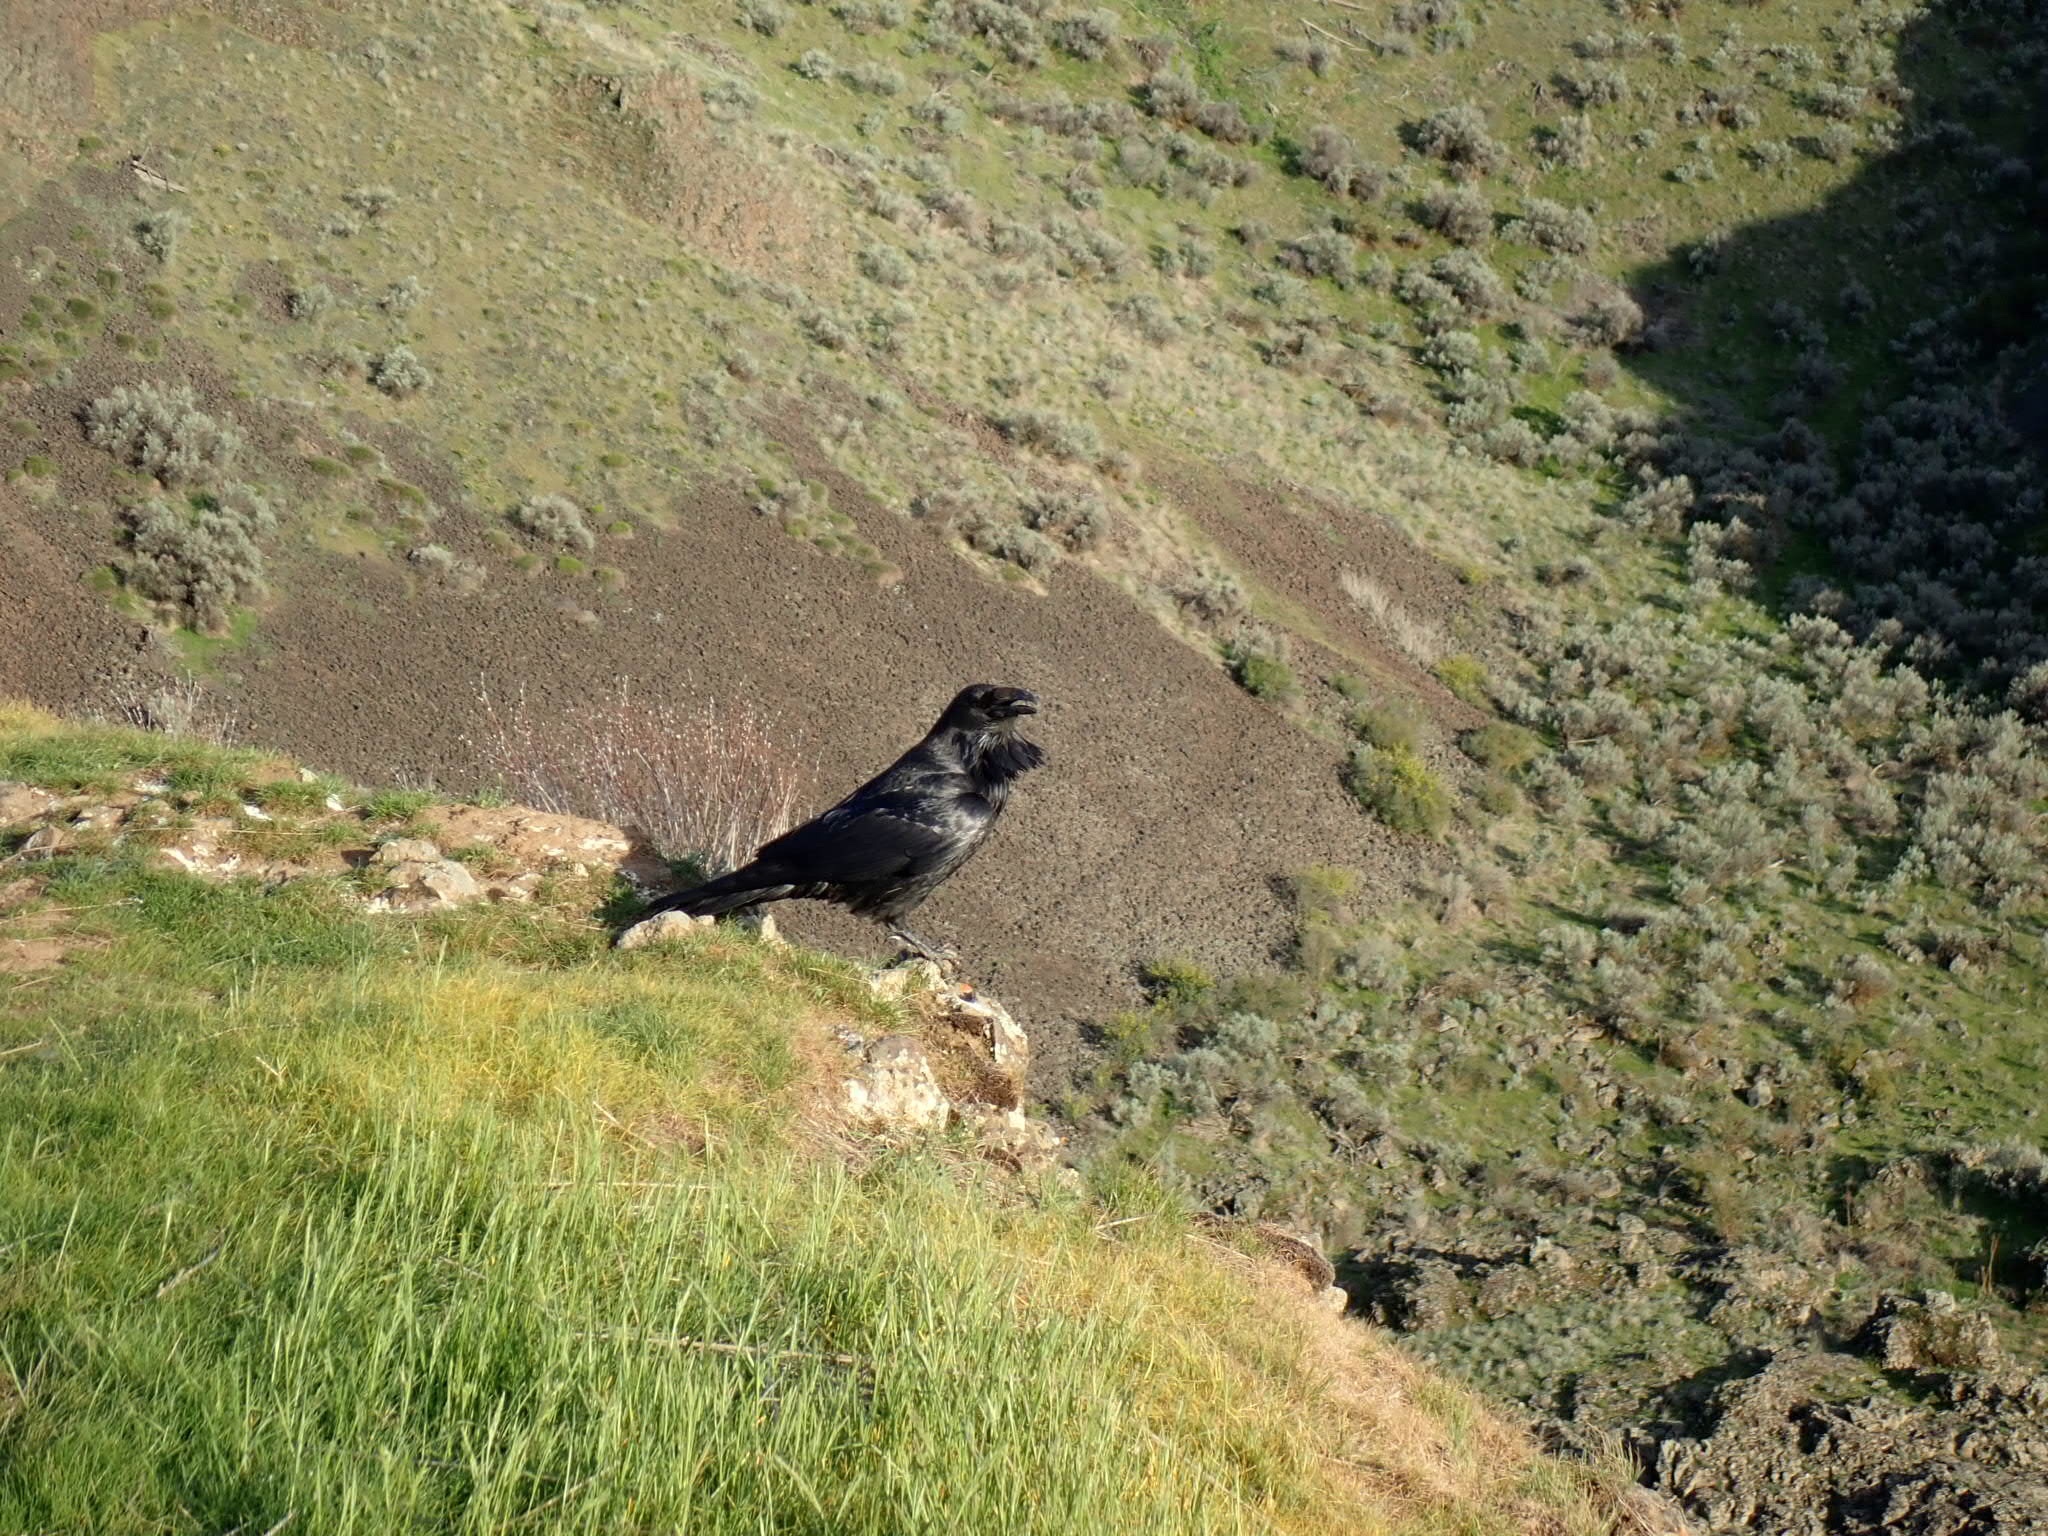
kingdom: Animalia
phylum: Chordata
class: Aves
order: Passeriformes
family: Corvidae
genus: Corvus
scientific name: Corvus corax
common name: Common raven
